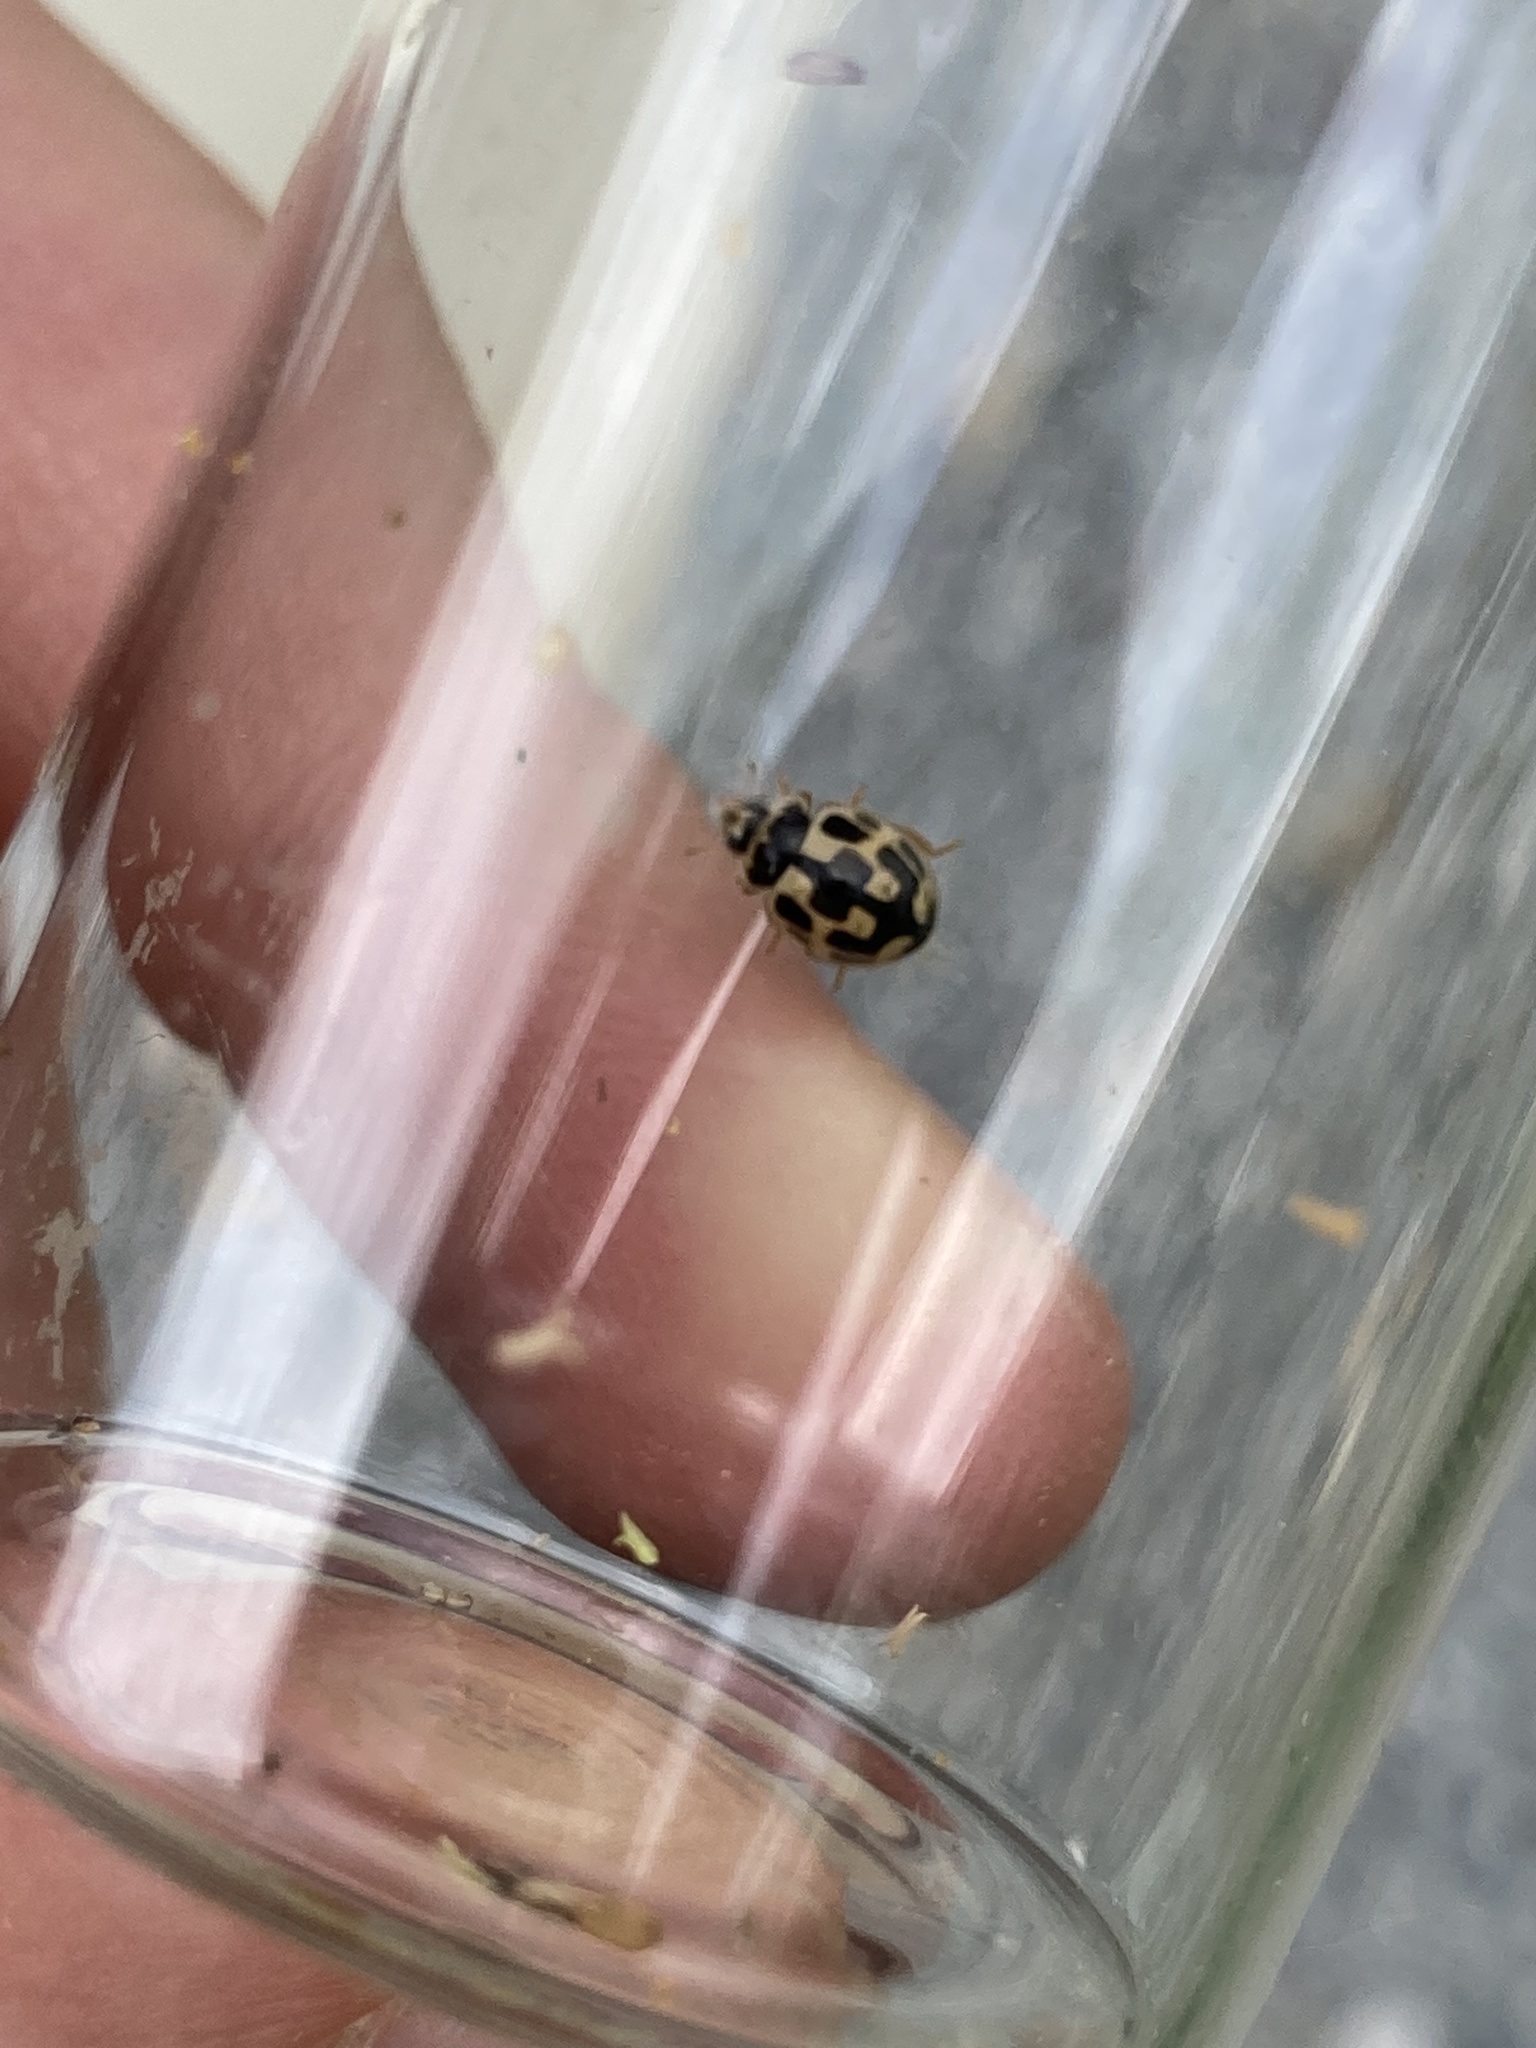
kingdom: Animalia
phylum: Arthropoda
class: Insecta
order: Coleoptera
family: Coccinellidae
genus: Propylaea
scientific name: Propylaea quatuordecimpunctata
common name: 14-spotted ladybird beetle
